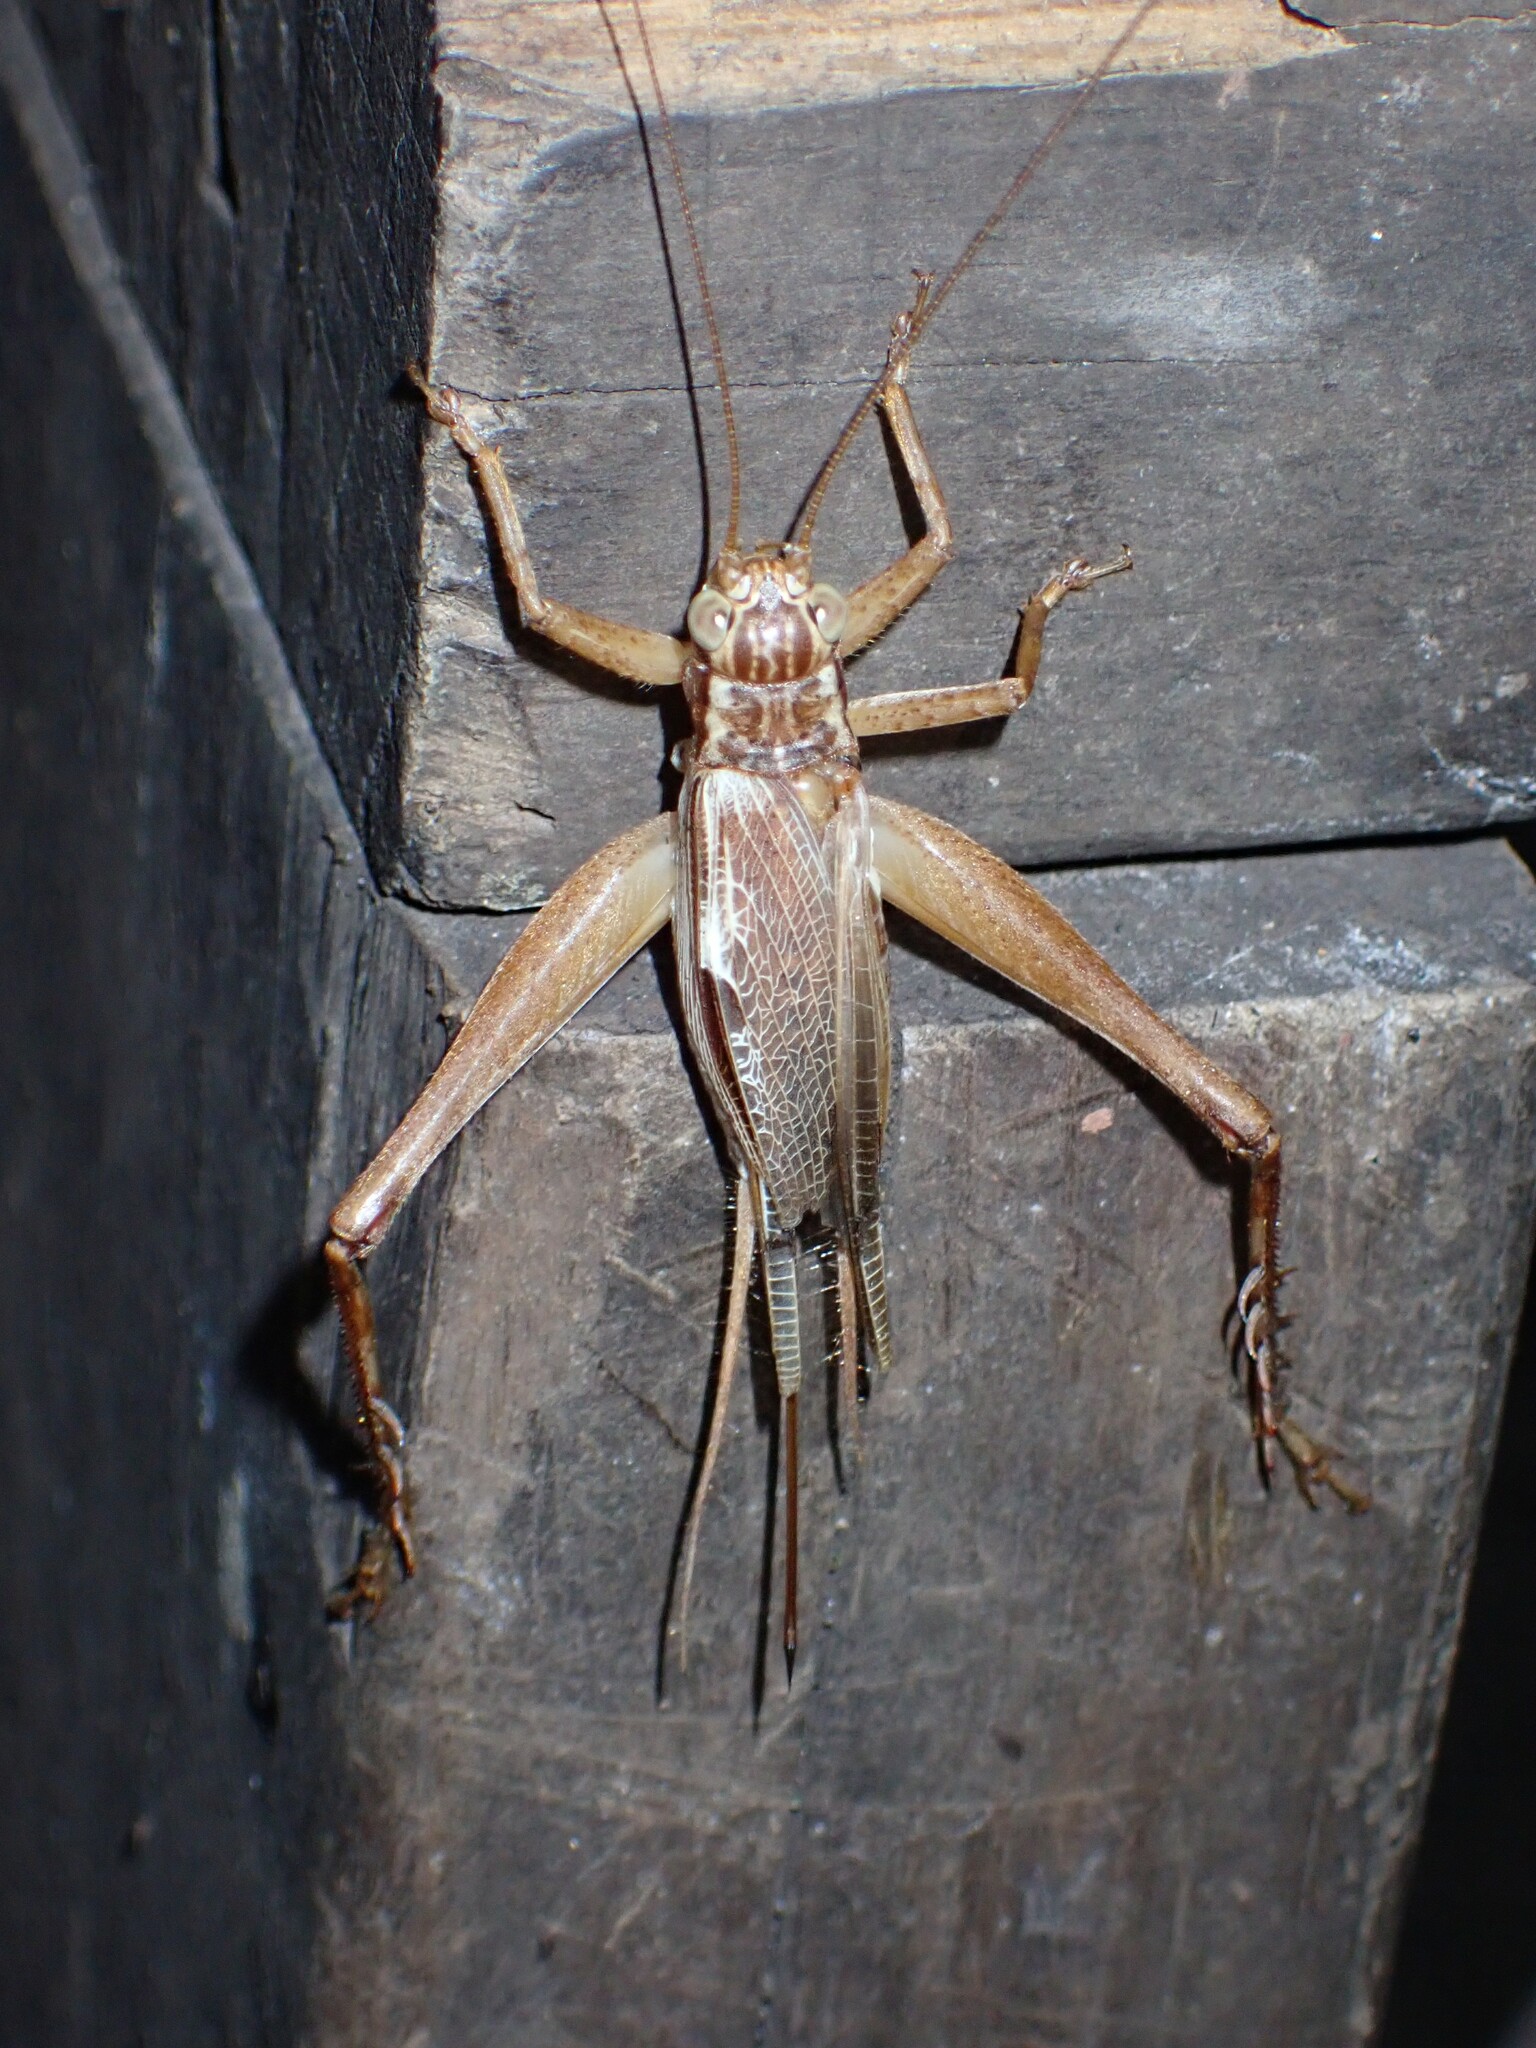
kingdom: Animalia
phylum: Arthropoda
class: Insecta
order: Orthoptera
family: Gryllidae
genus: Cardiodactylus
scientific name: Cardiodactylus novaeguineae
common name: Sad cricket
